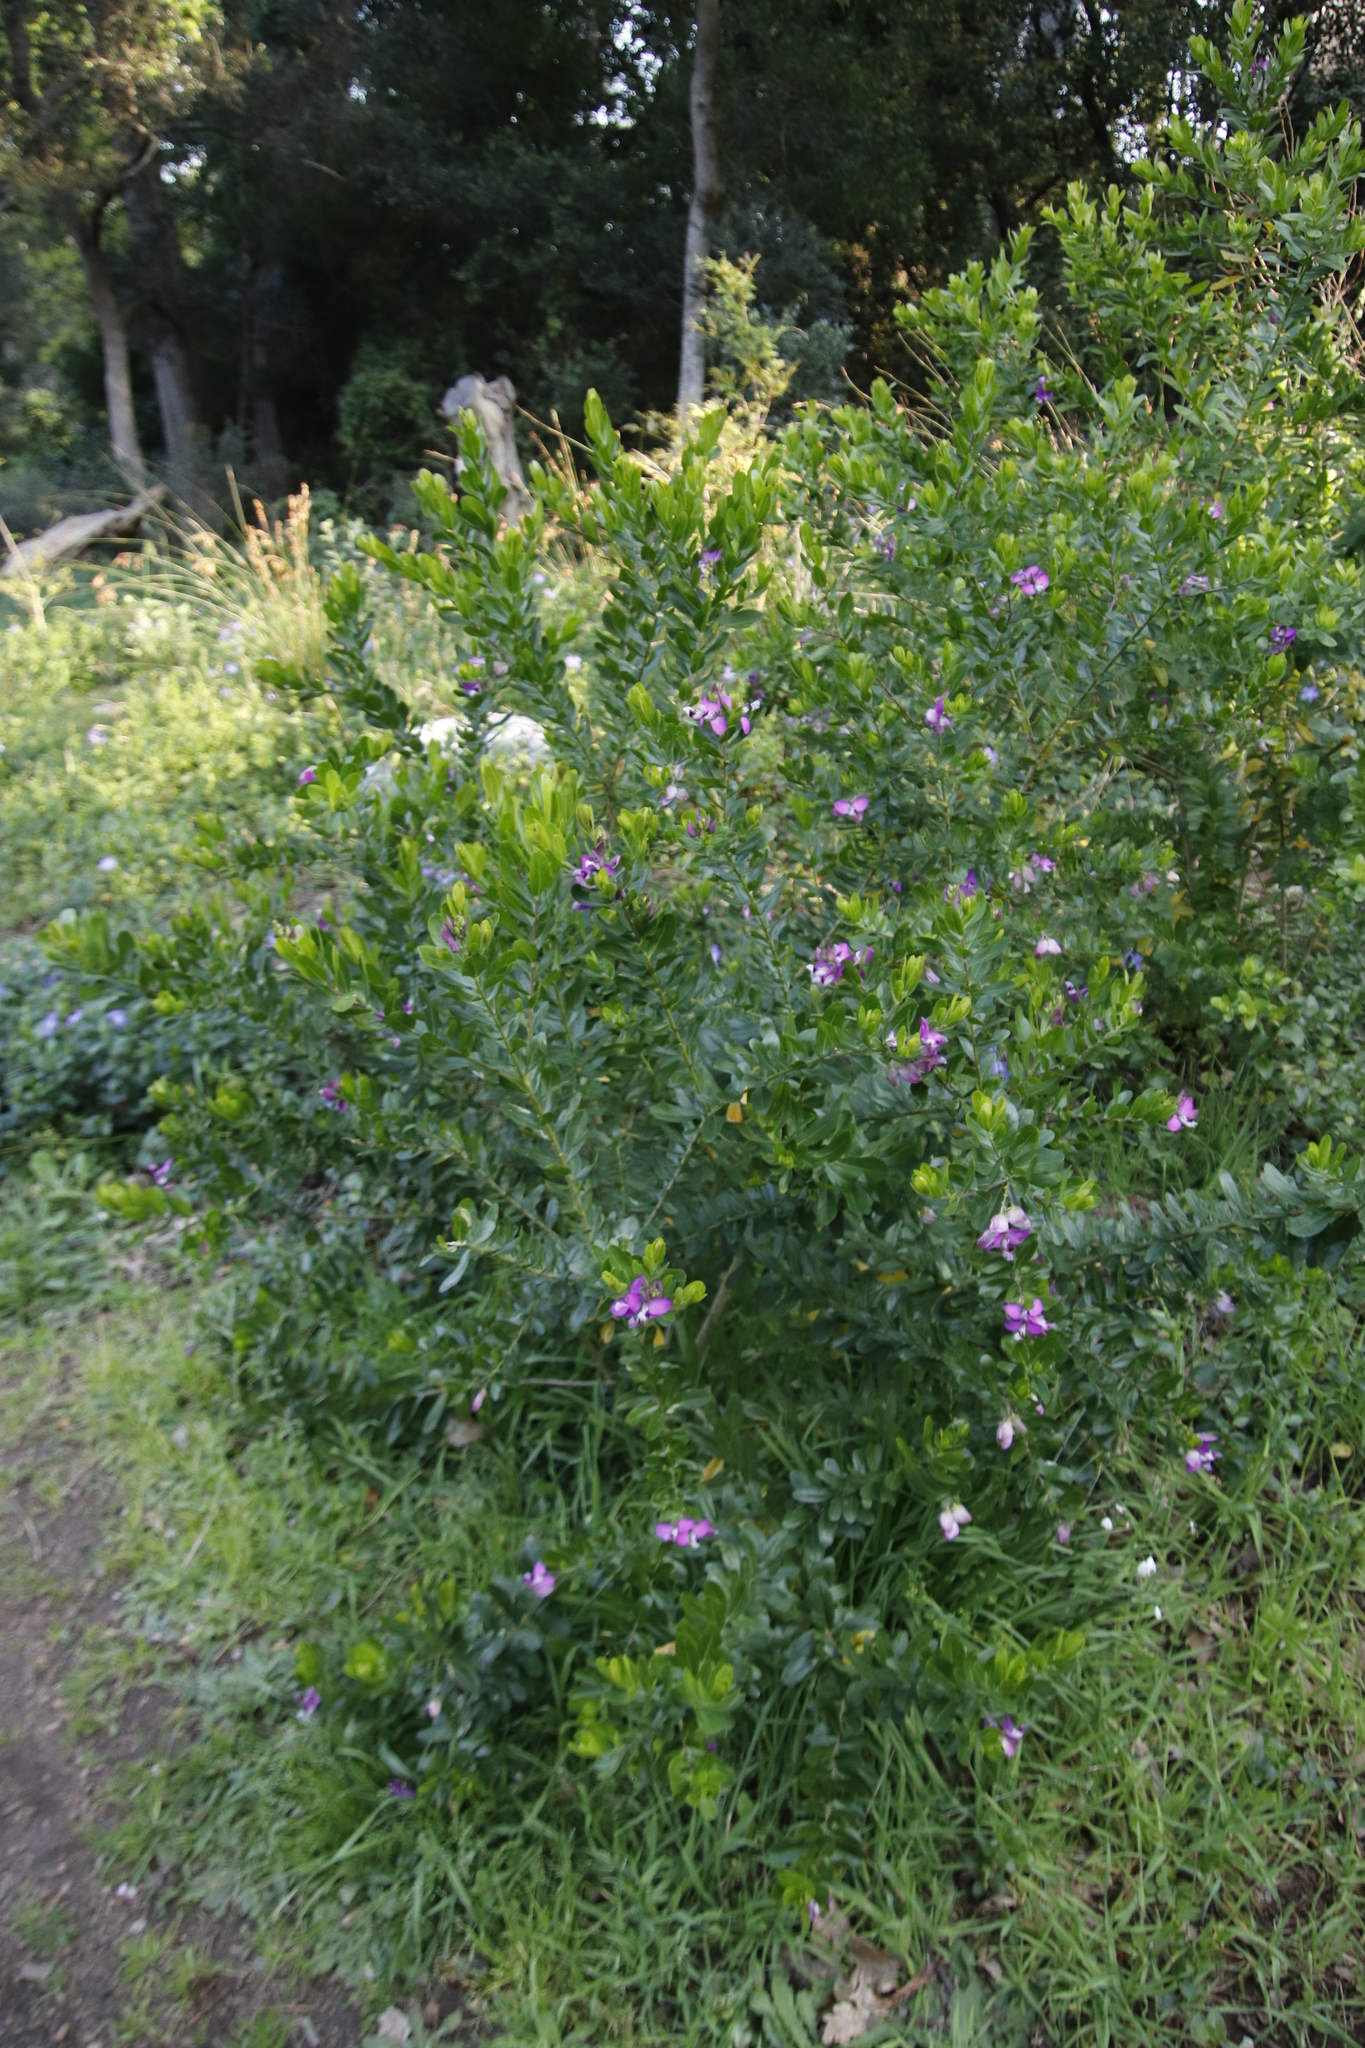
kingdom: Plantae
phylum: Tracheophyta
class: Magnoliopsida
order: Fabales
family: Polygalaceae
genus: Polygala
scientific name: Polygala myrtifolia
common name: Myrtle-leaf milkwort
